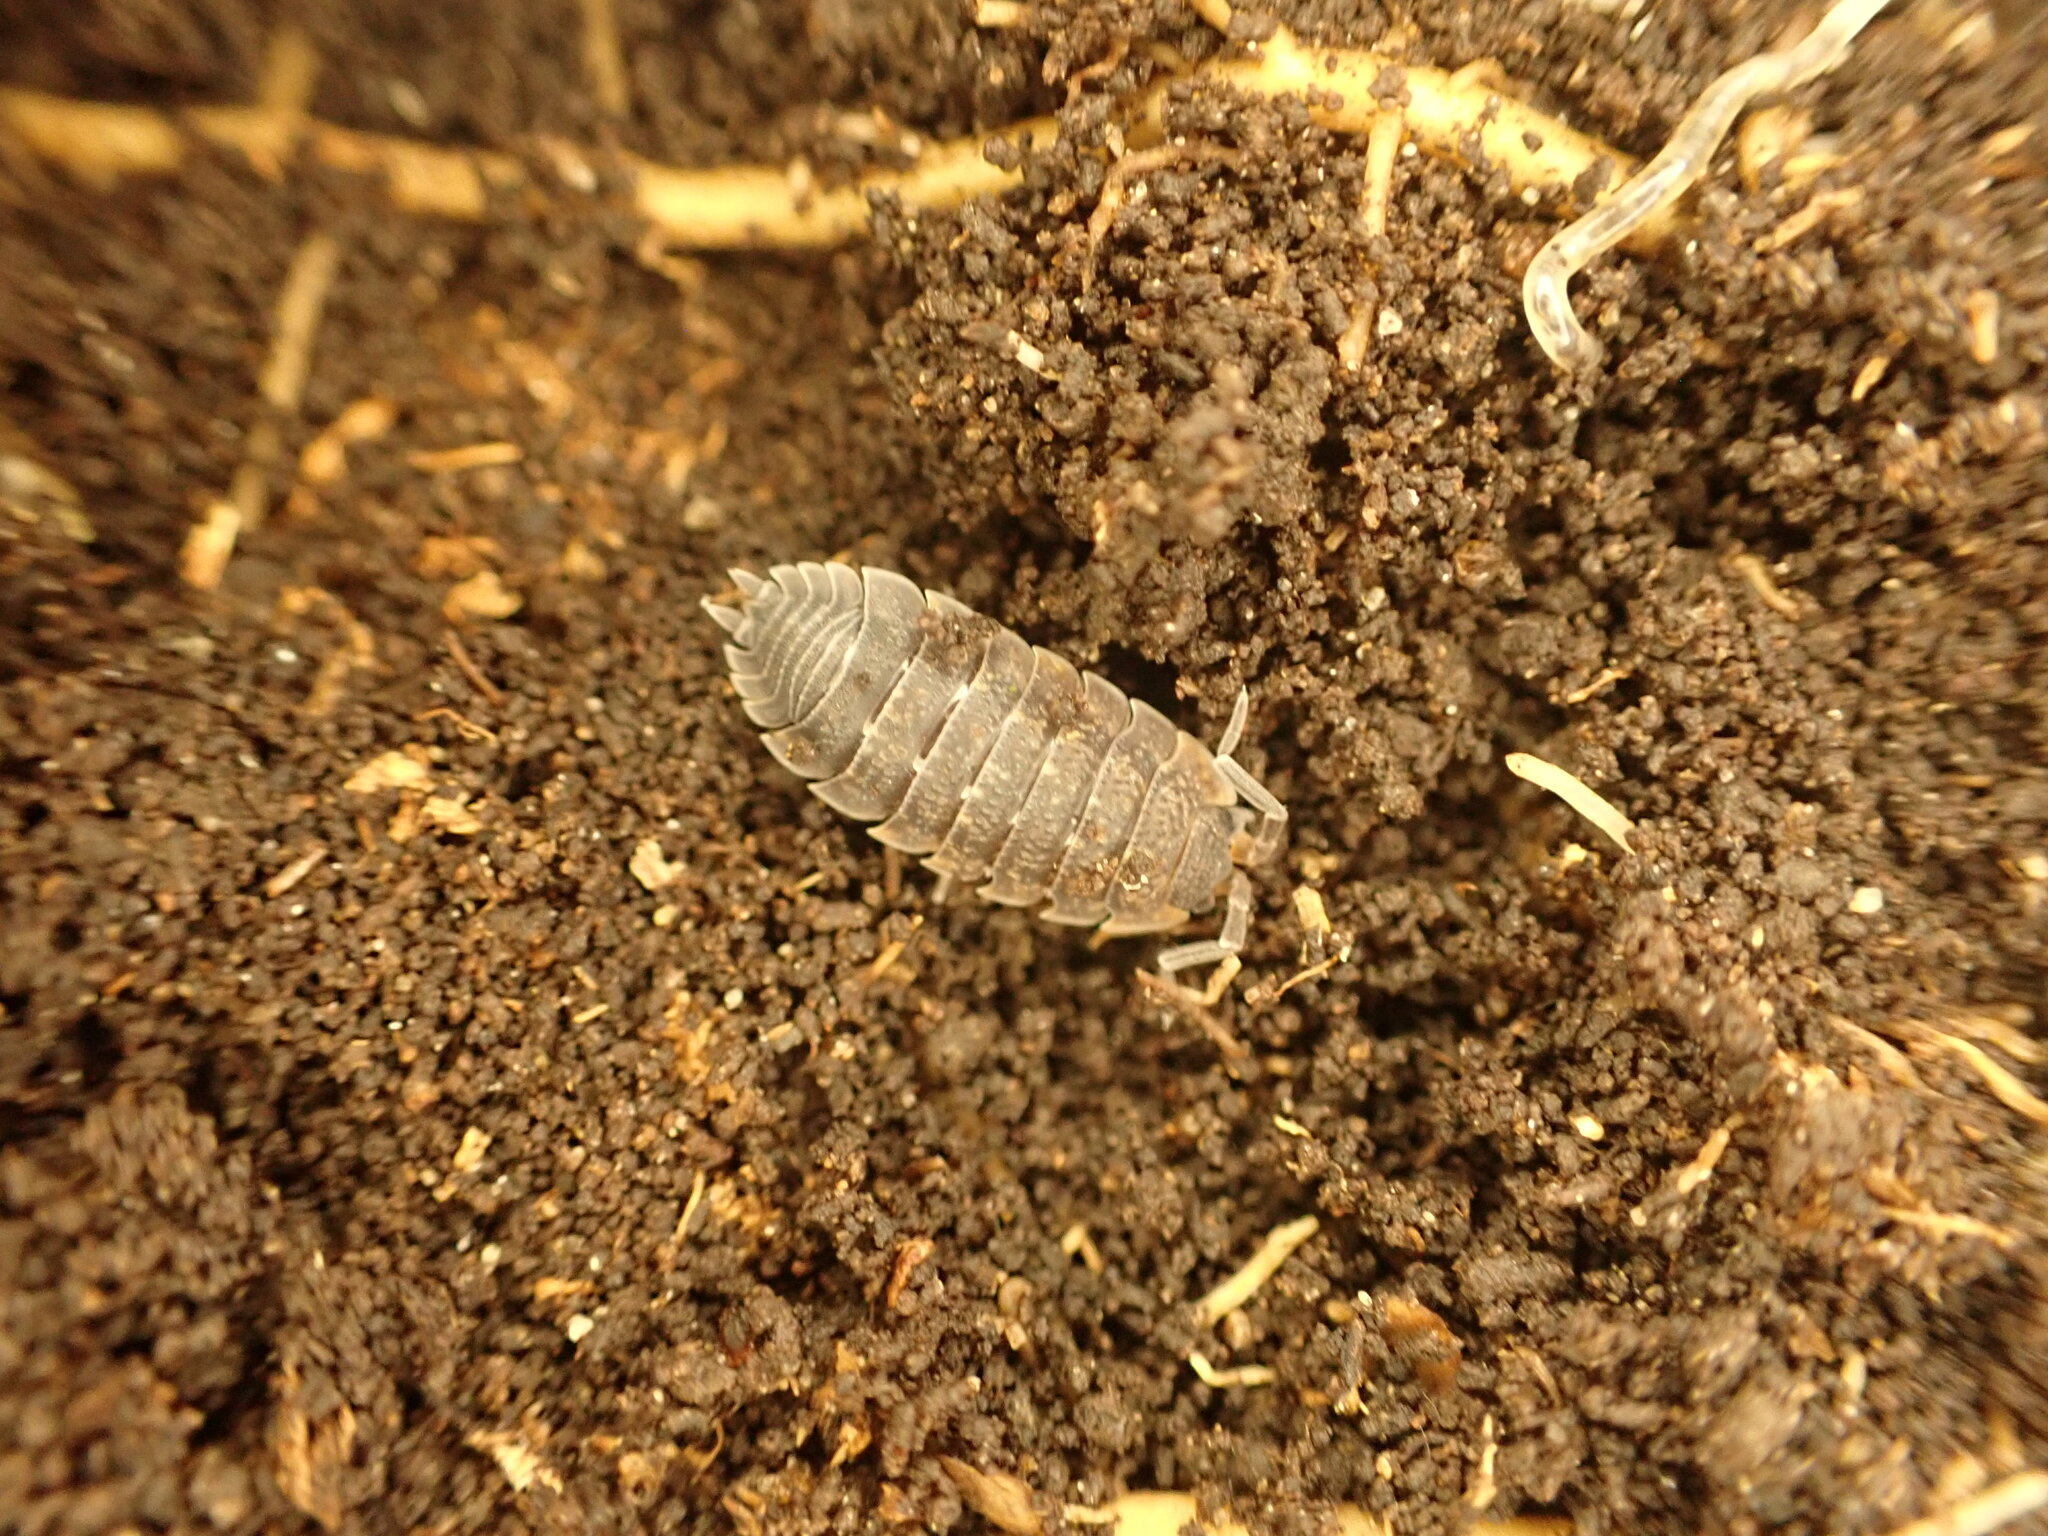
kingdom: Animalia
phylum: Arthropoda
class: Malacostraca
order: Isopoda
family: Porcellionidae
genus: Porcellio
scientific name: Porcellio scaber
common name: Common rough woodlouse
